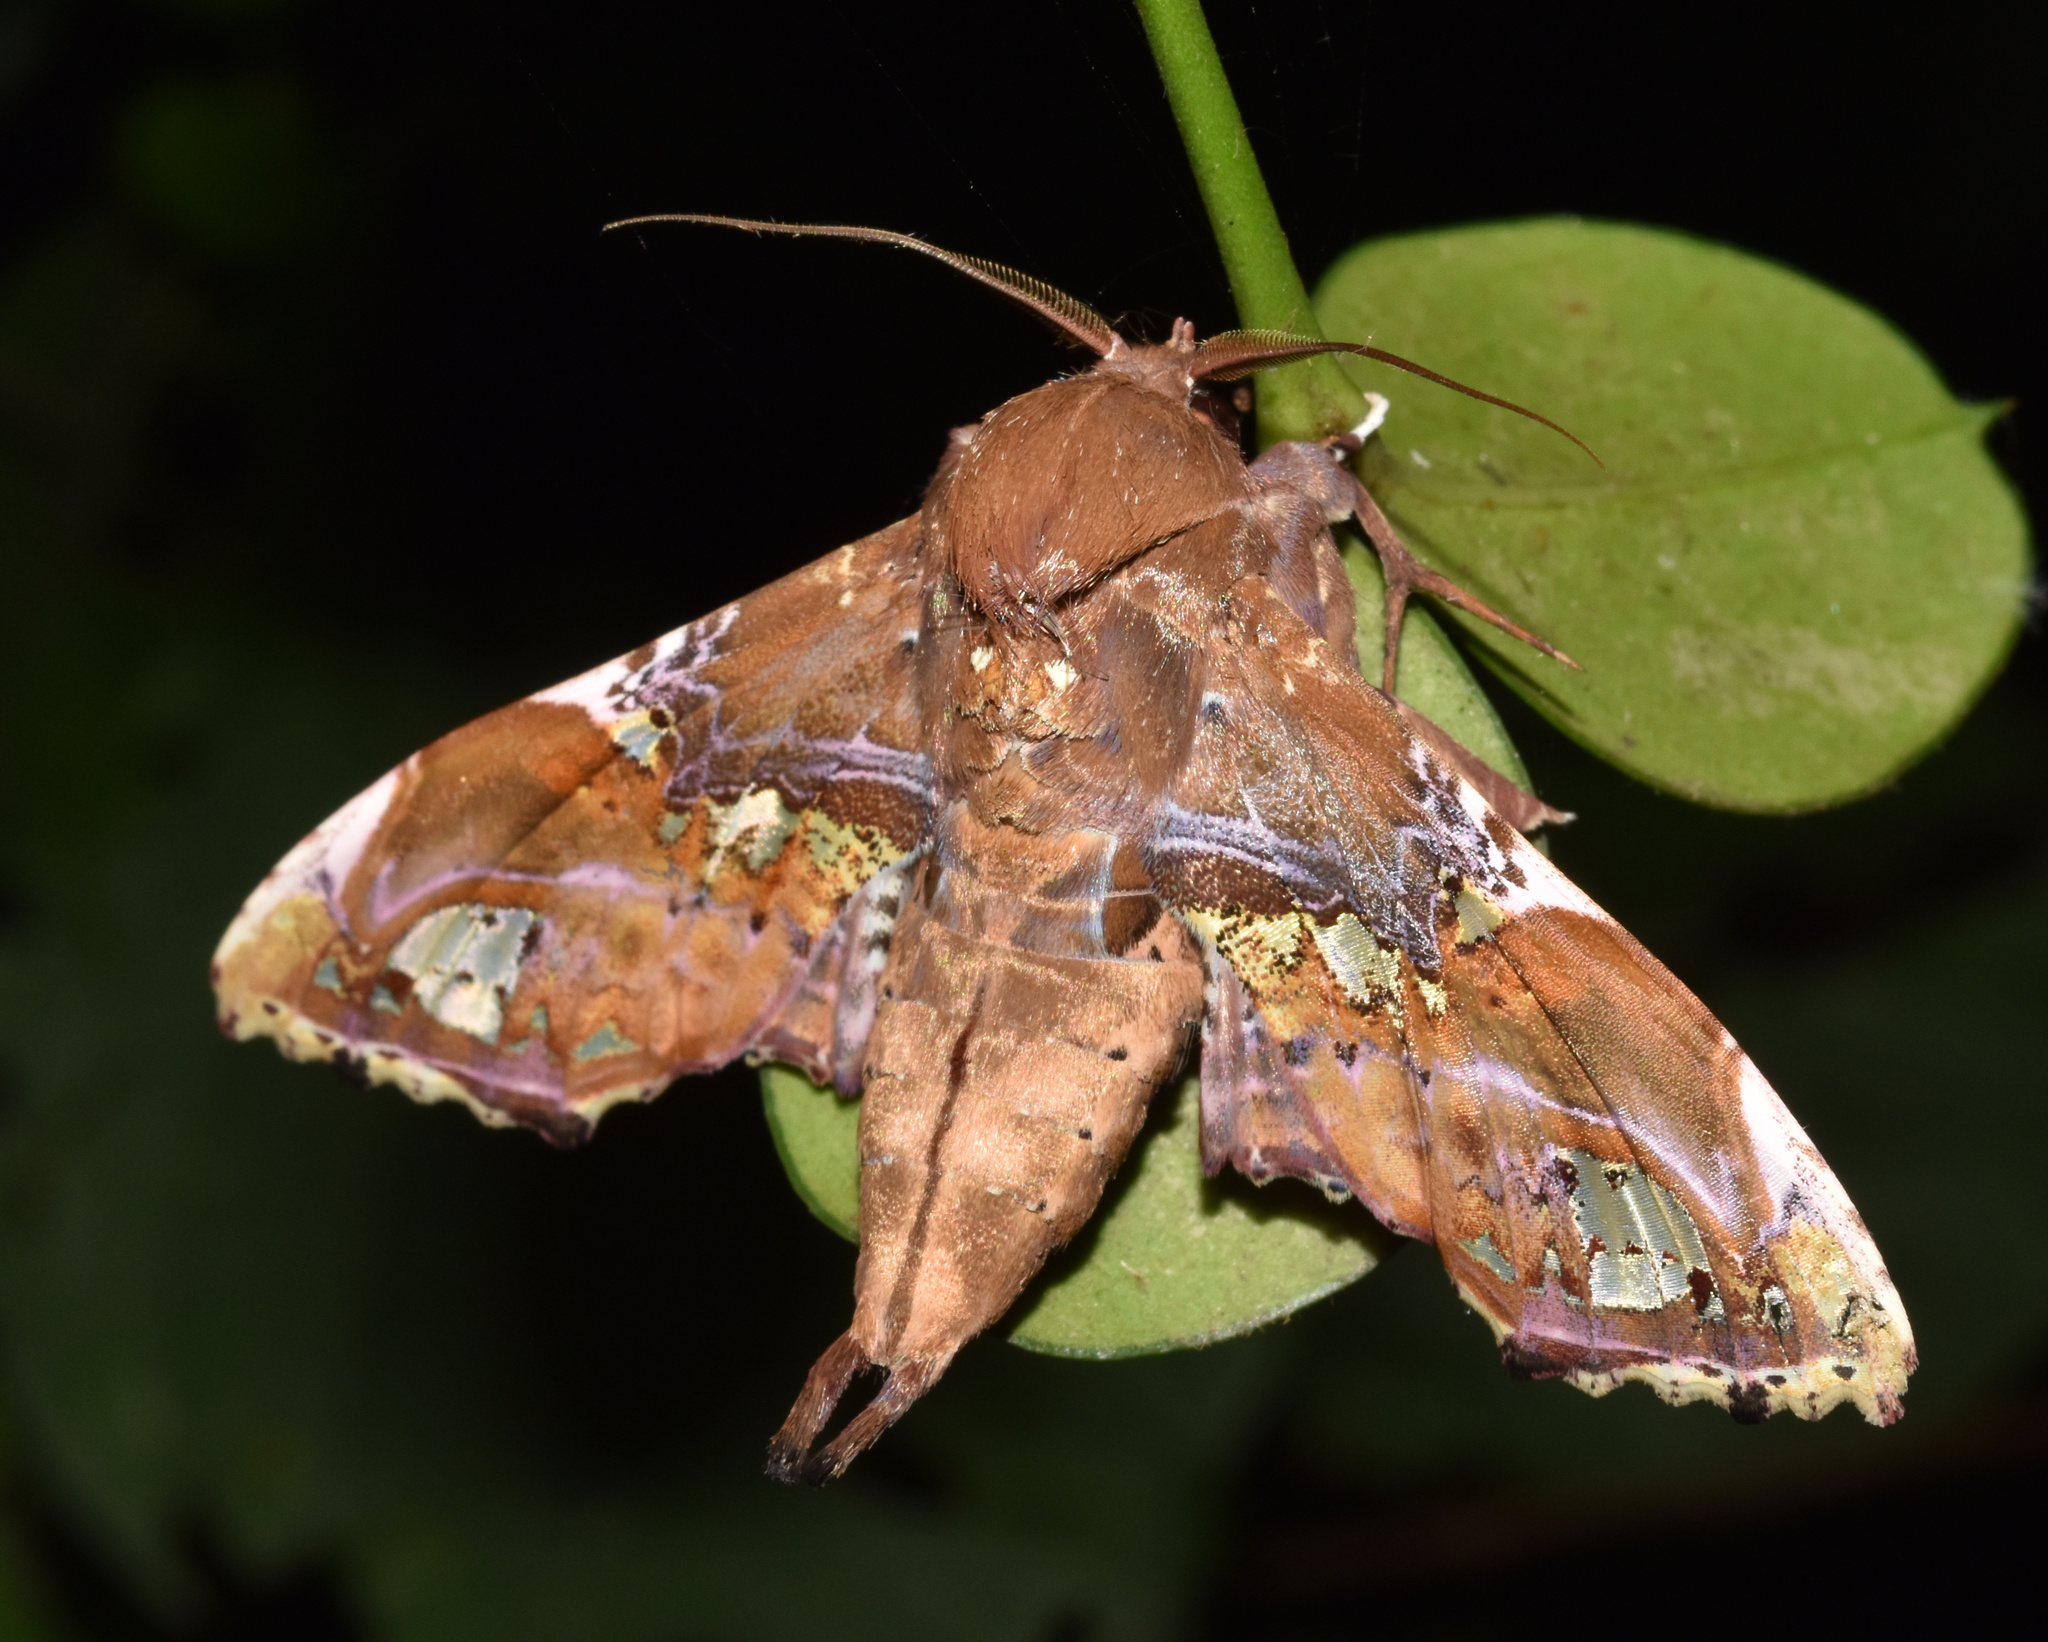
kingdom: Animalia
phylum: Arthropoda
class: Insecta
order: Lepidoptera
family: Euteliidae
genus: Caligatus
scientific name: Caligatus angasii
